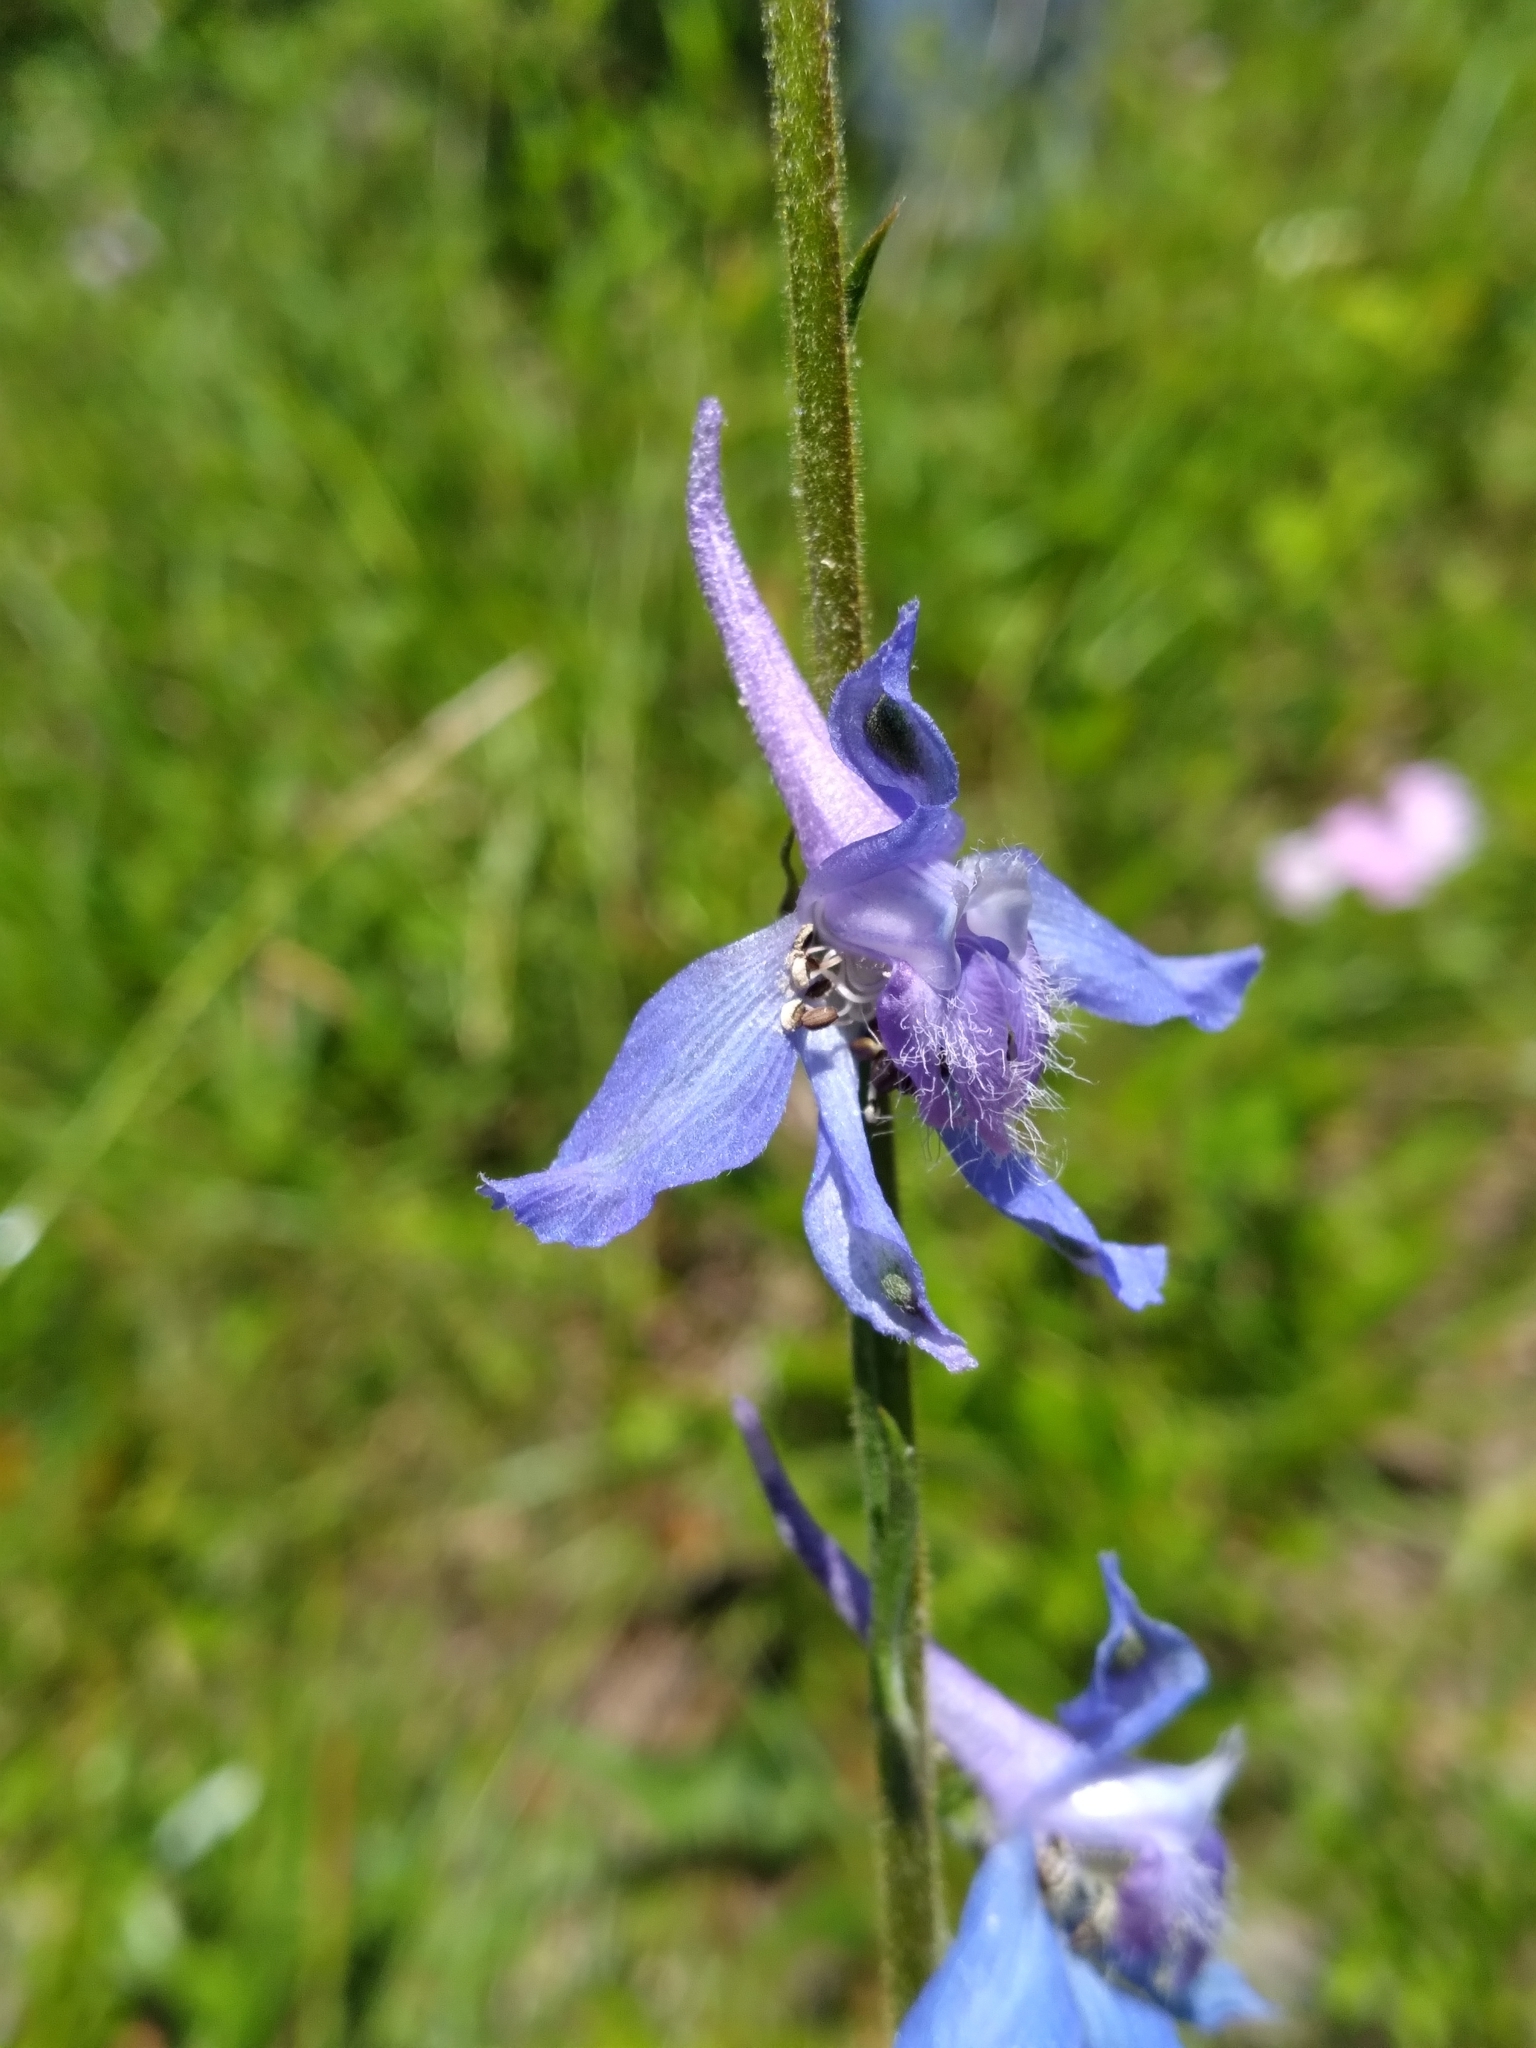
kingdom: Plantae
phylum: Tracheophyta
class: Magnoliopsida
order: Ranunculales
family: Ranunculaceae
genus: Delphinium
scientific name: Delphinium carolinianum
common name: Carolina larkspur
